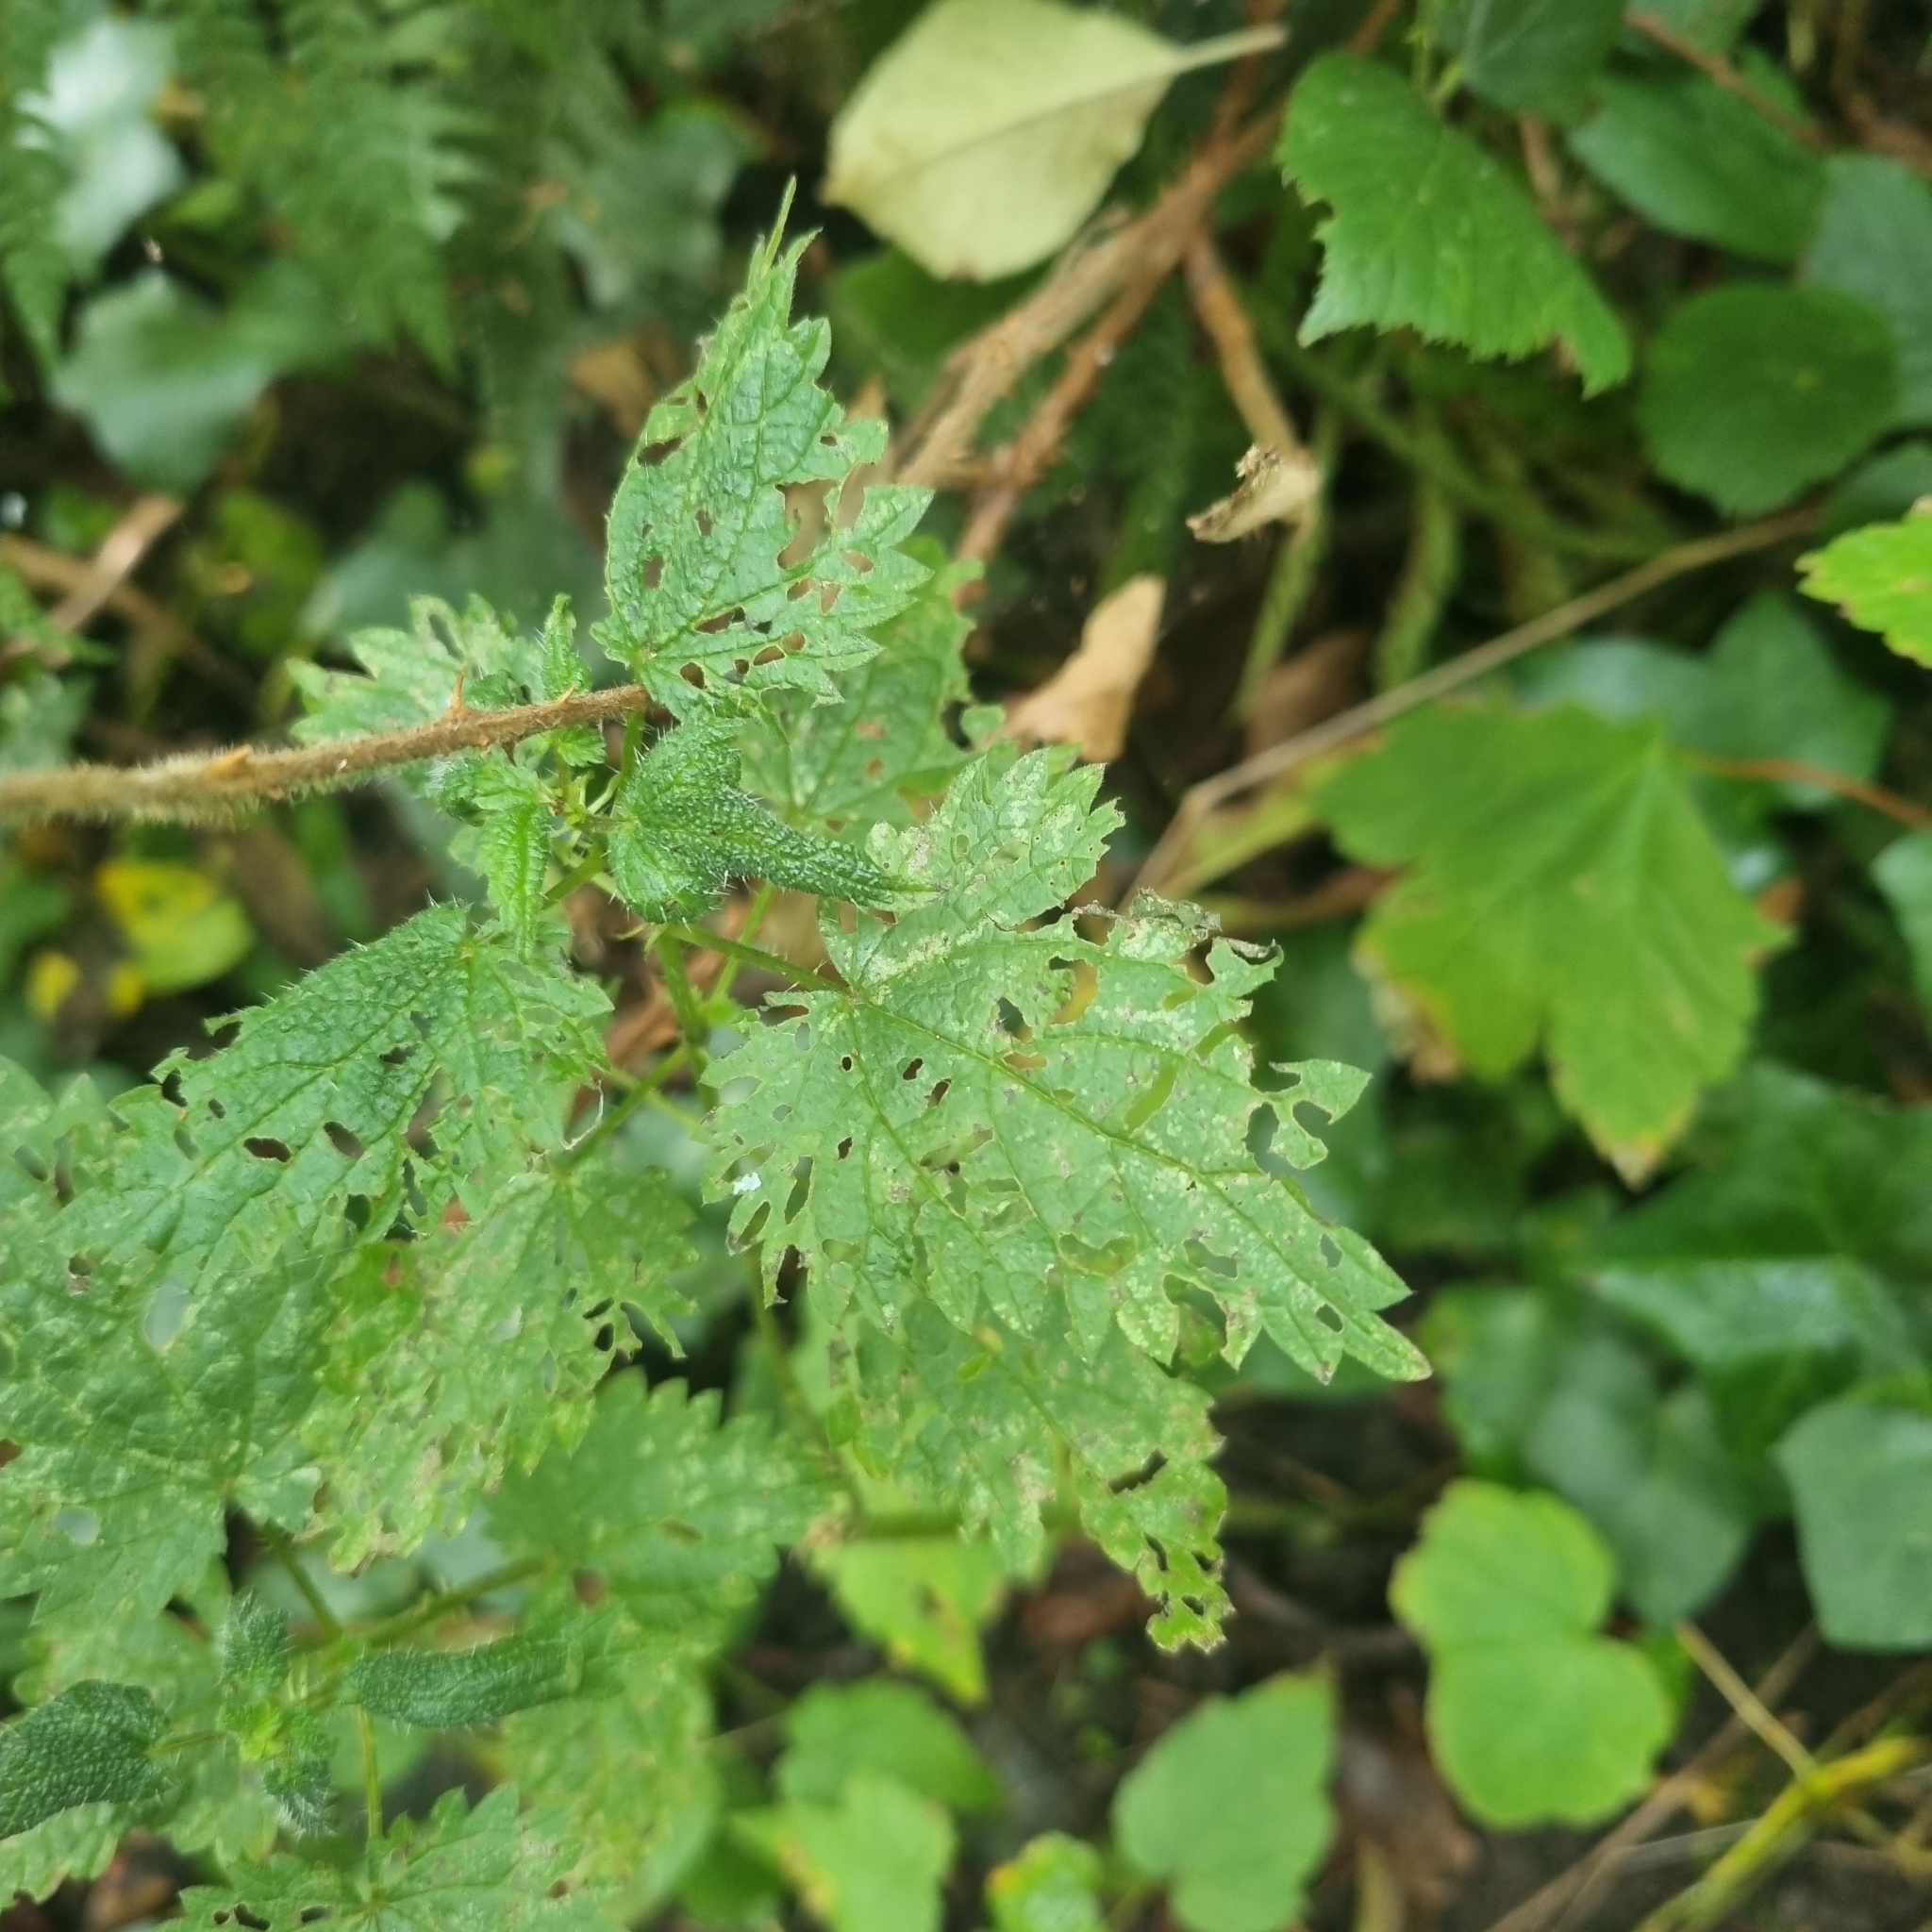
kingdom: Plantae
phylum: Tracheophyta
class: Magnoliopsida
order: Rosales
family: Urticaceae
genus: Urtica
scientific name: Urtica dioica
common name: Common nettle
